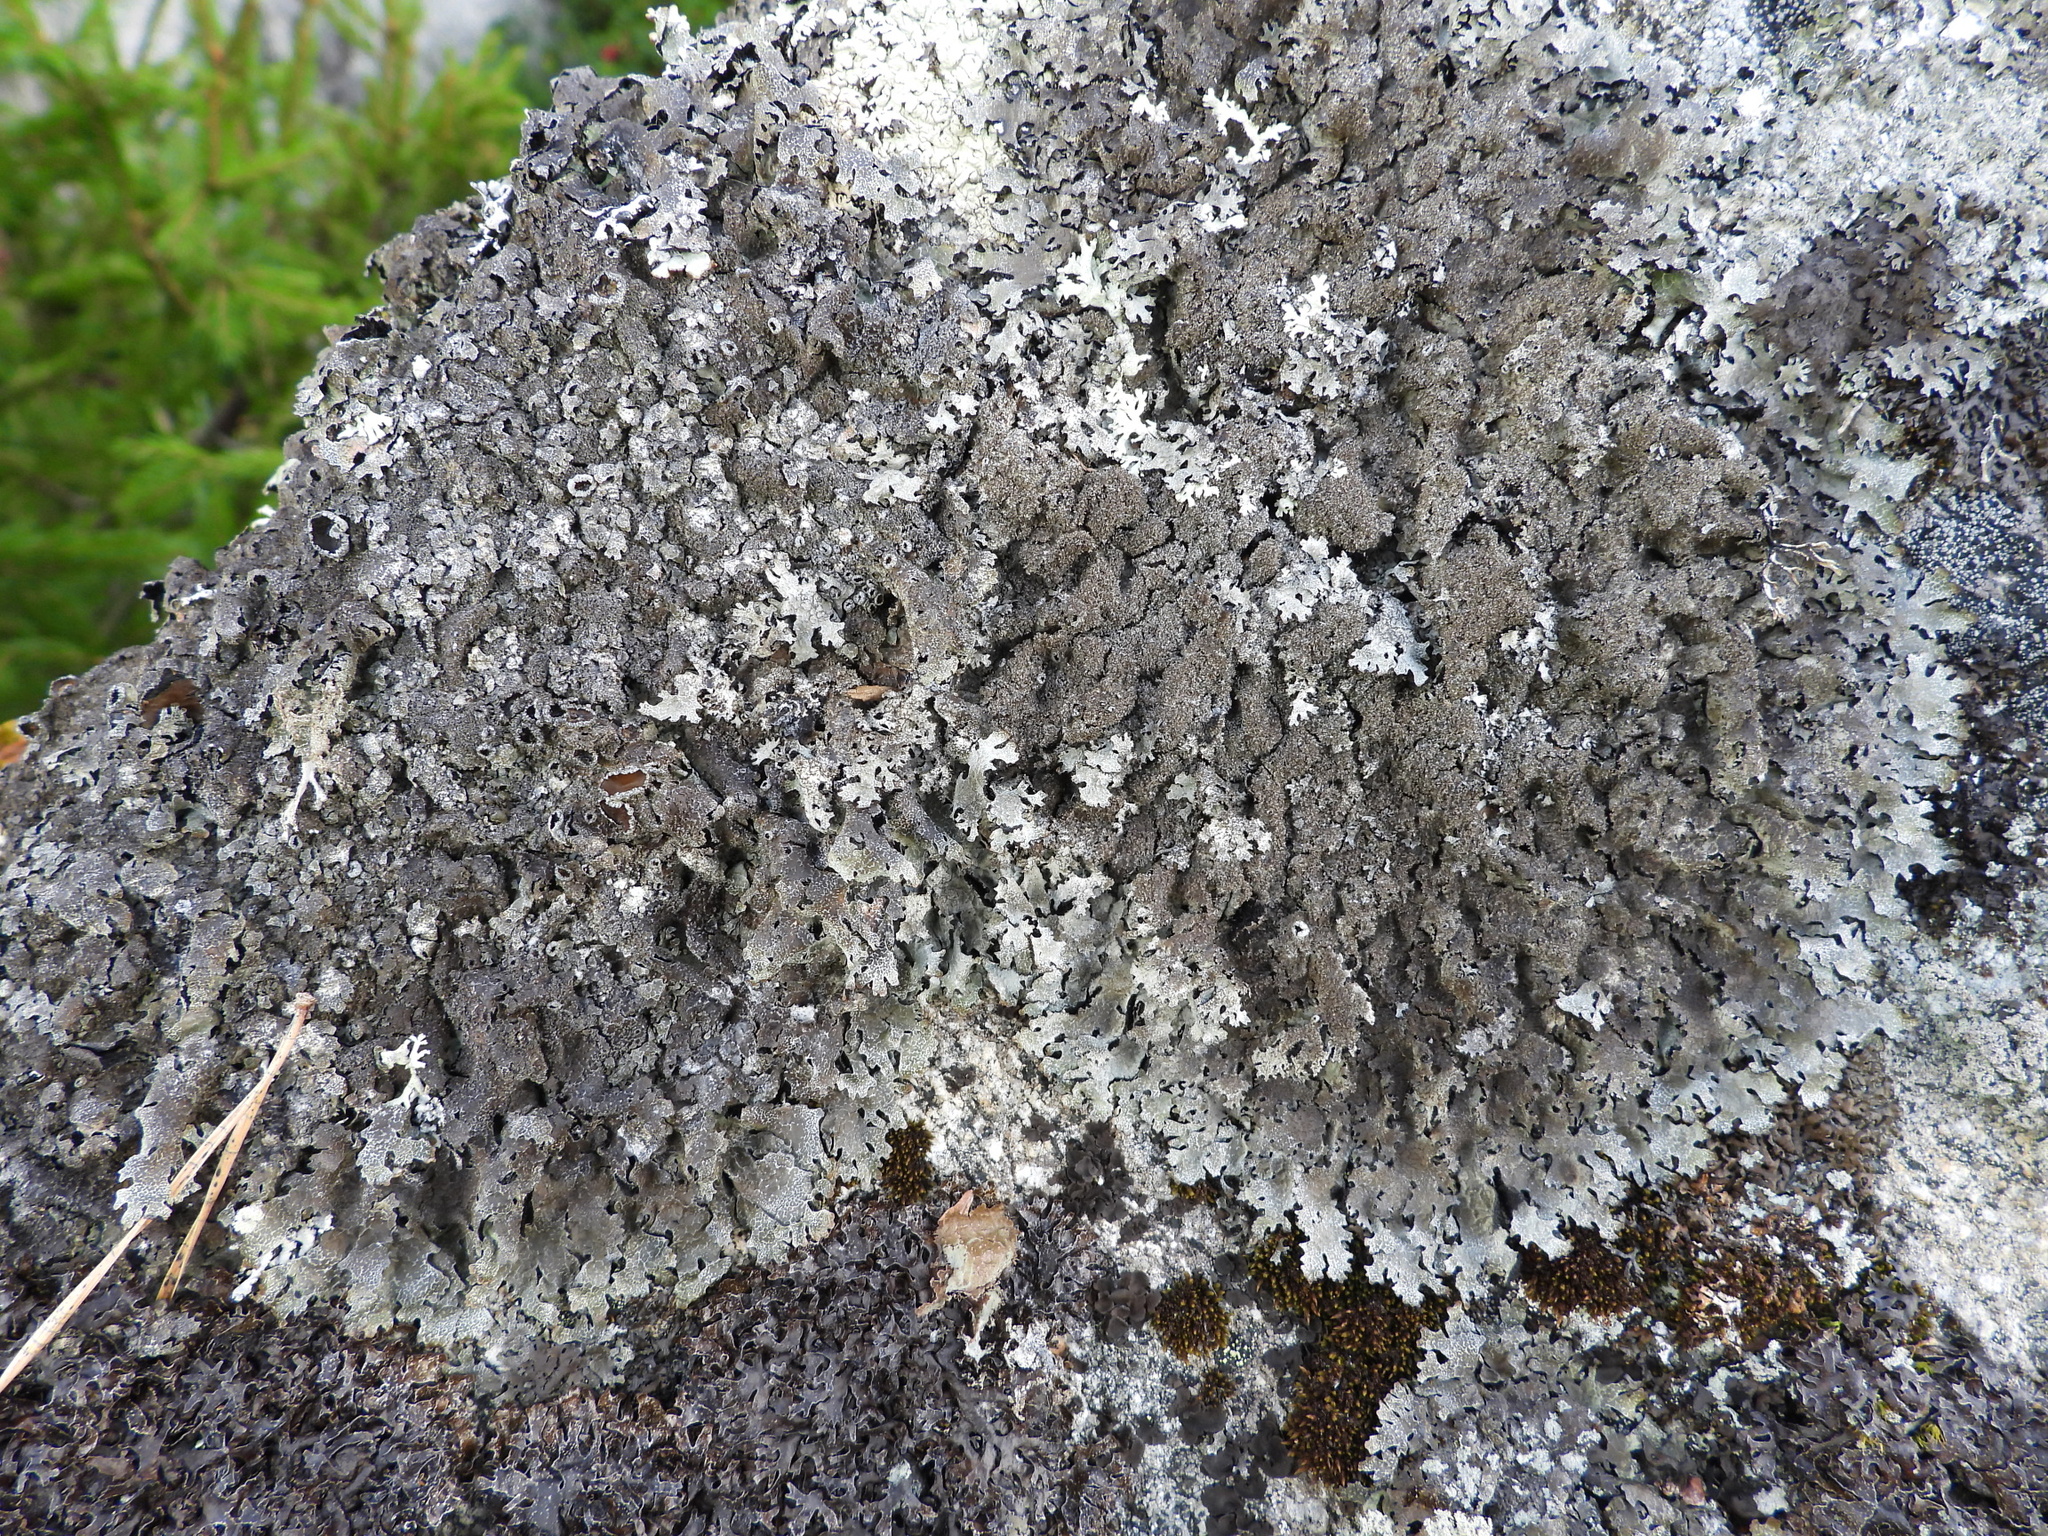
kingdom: Fungi
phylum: Ascomycota
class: Lecanoromycetes
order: Lecanorales
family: Parmeliaceae
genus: Parmelia
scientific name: Parmelia saxatilis
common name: Salted shield lichen
